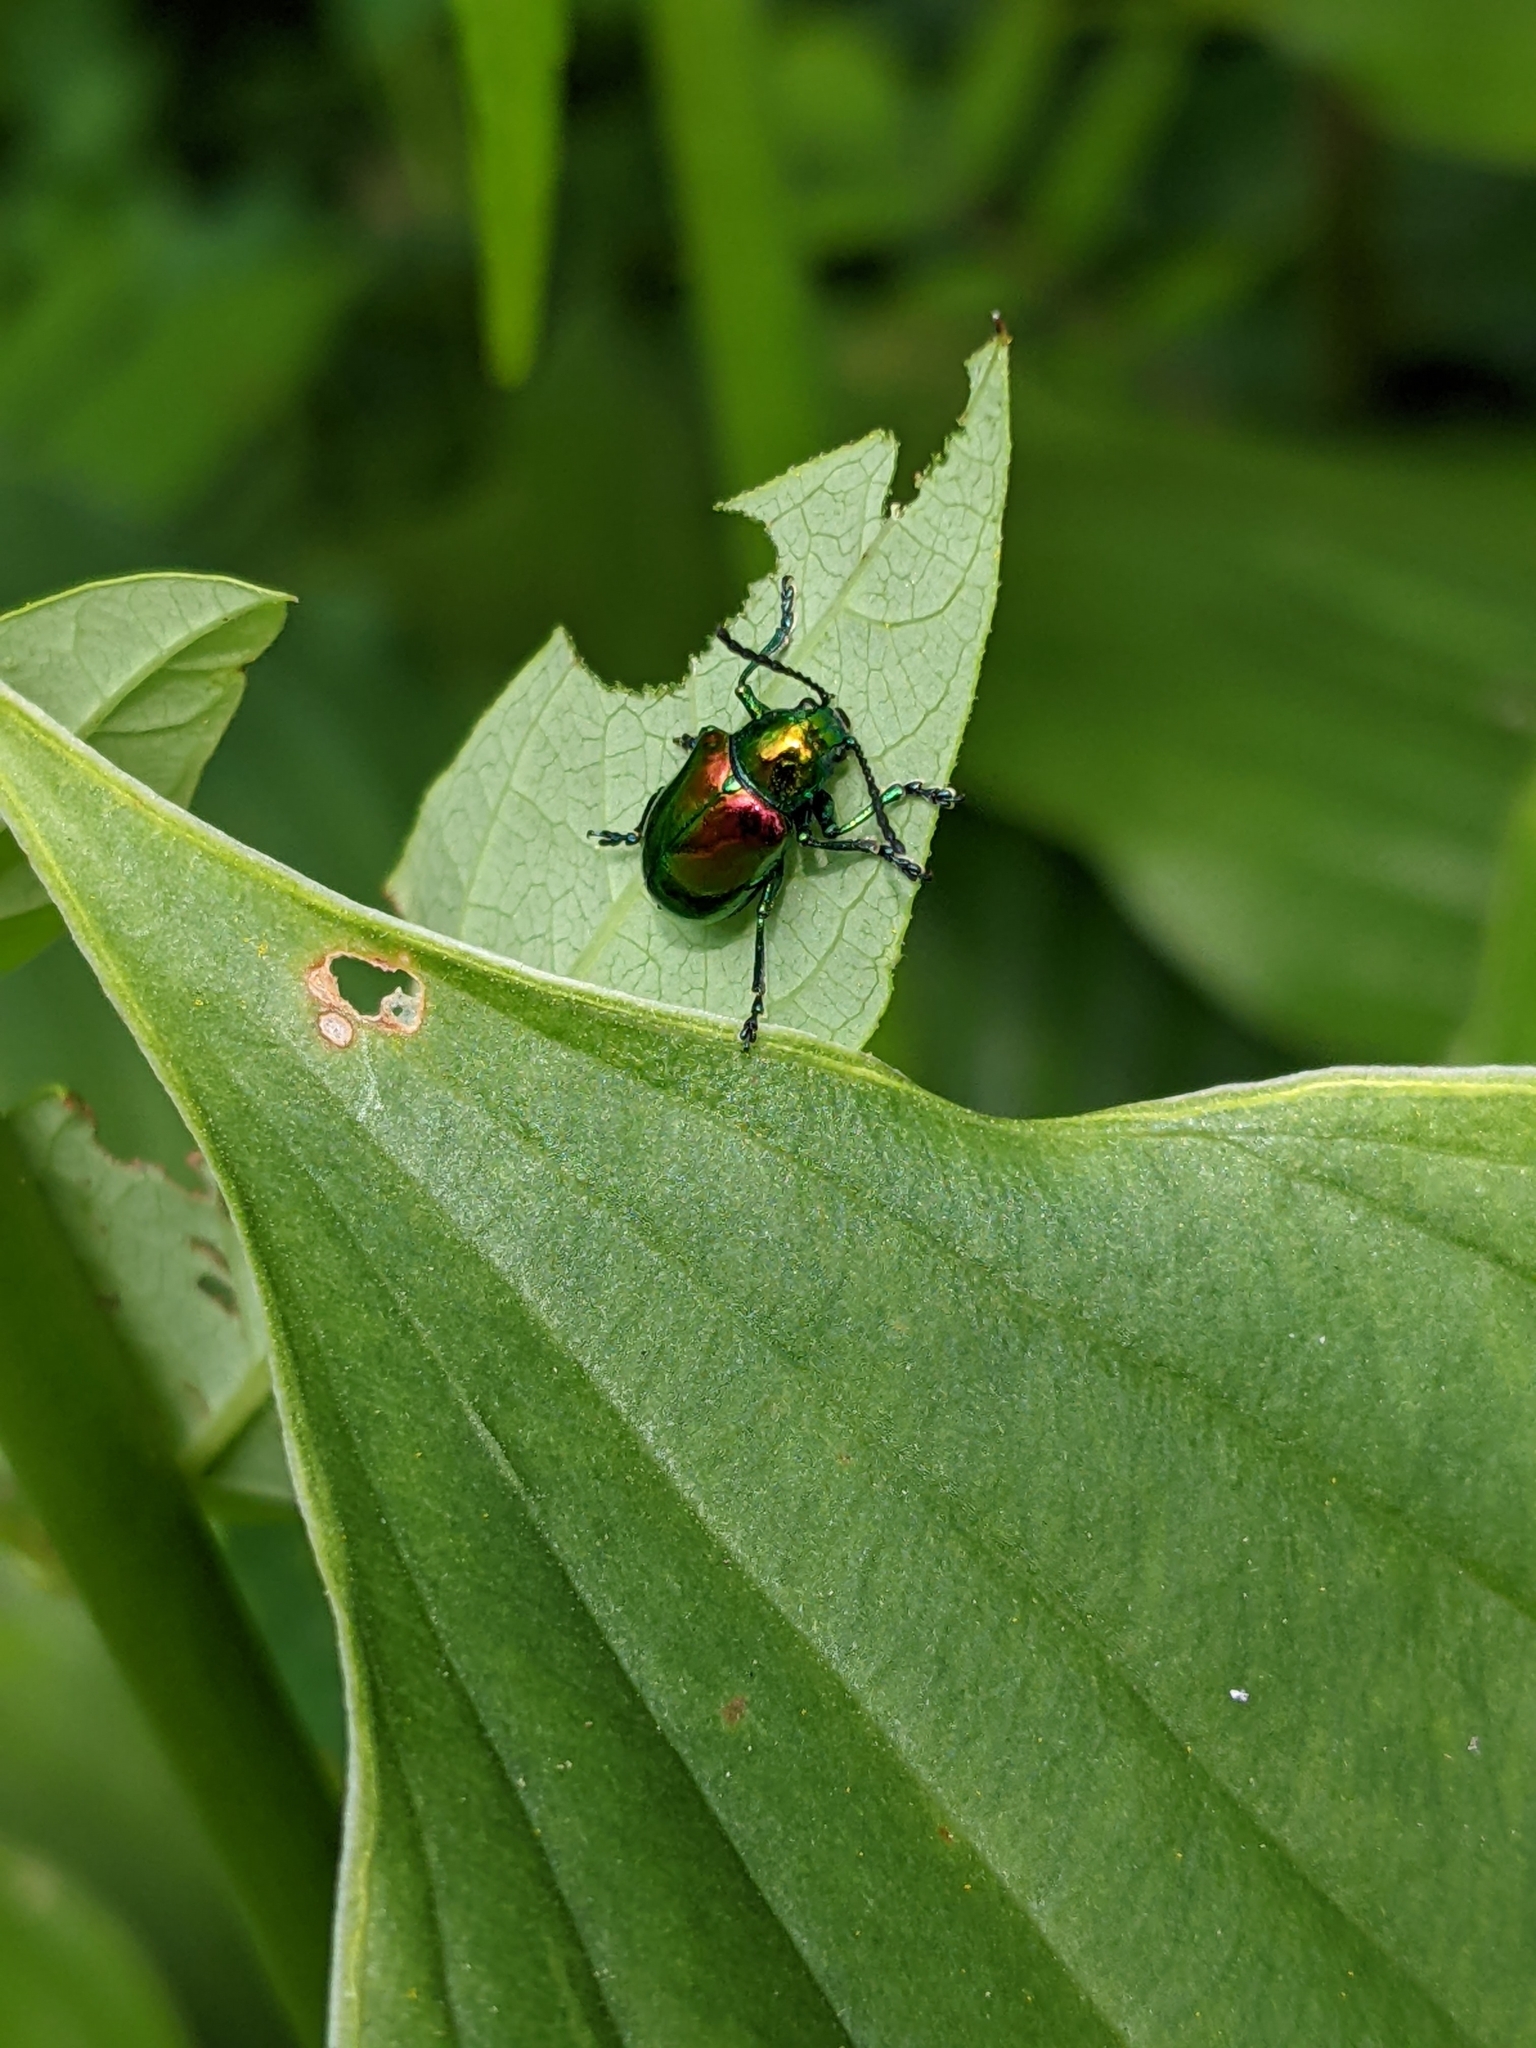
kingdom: Animalia
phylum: Arthropoda
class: Insecta
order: Coleoptera
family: Chrysomelidae
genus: Chrysochus
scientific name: Chrysochus auratus
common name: Dogbane leaf beetle
